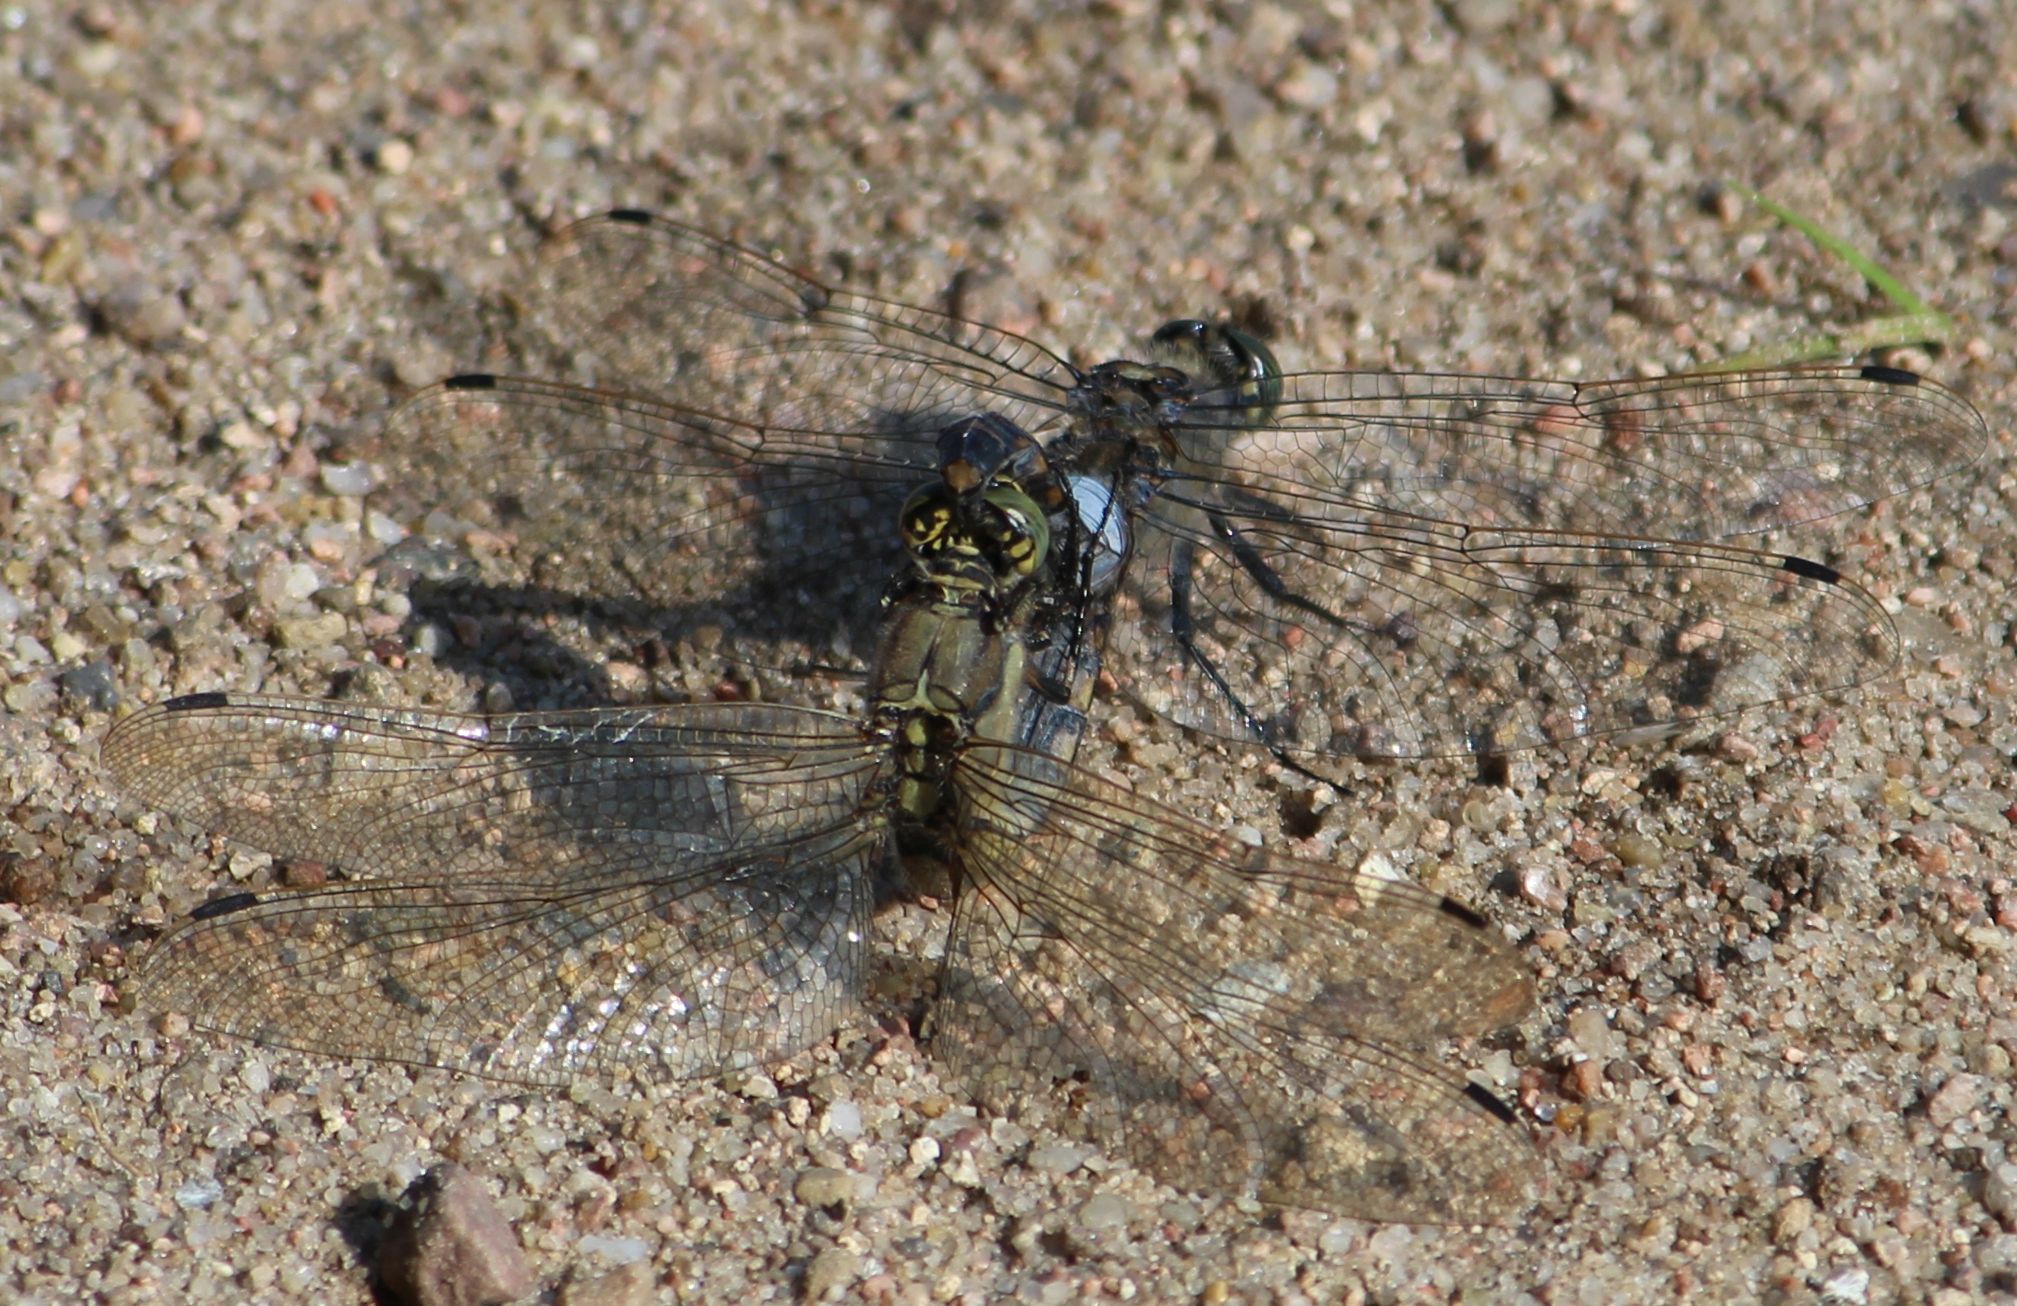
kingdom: Animalia
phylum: Arthropoda
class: Insecta
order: Odonata
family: Libellulidae
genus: Orthetrum
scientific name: Orthetrum cancellatum
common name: Black-tailed skimmer
